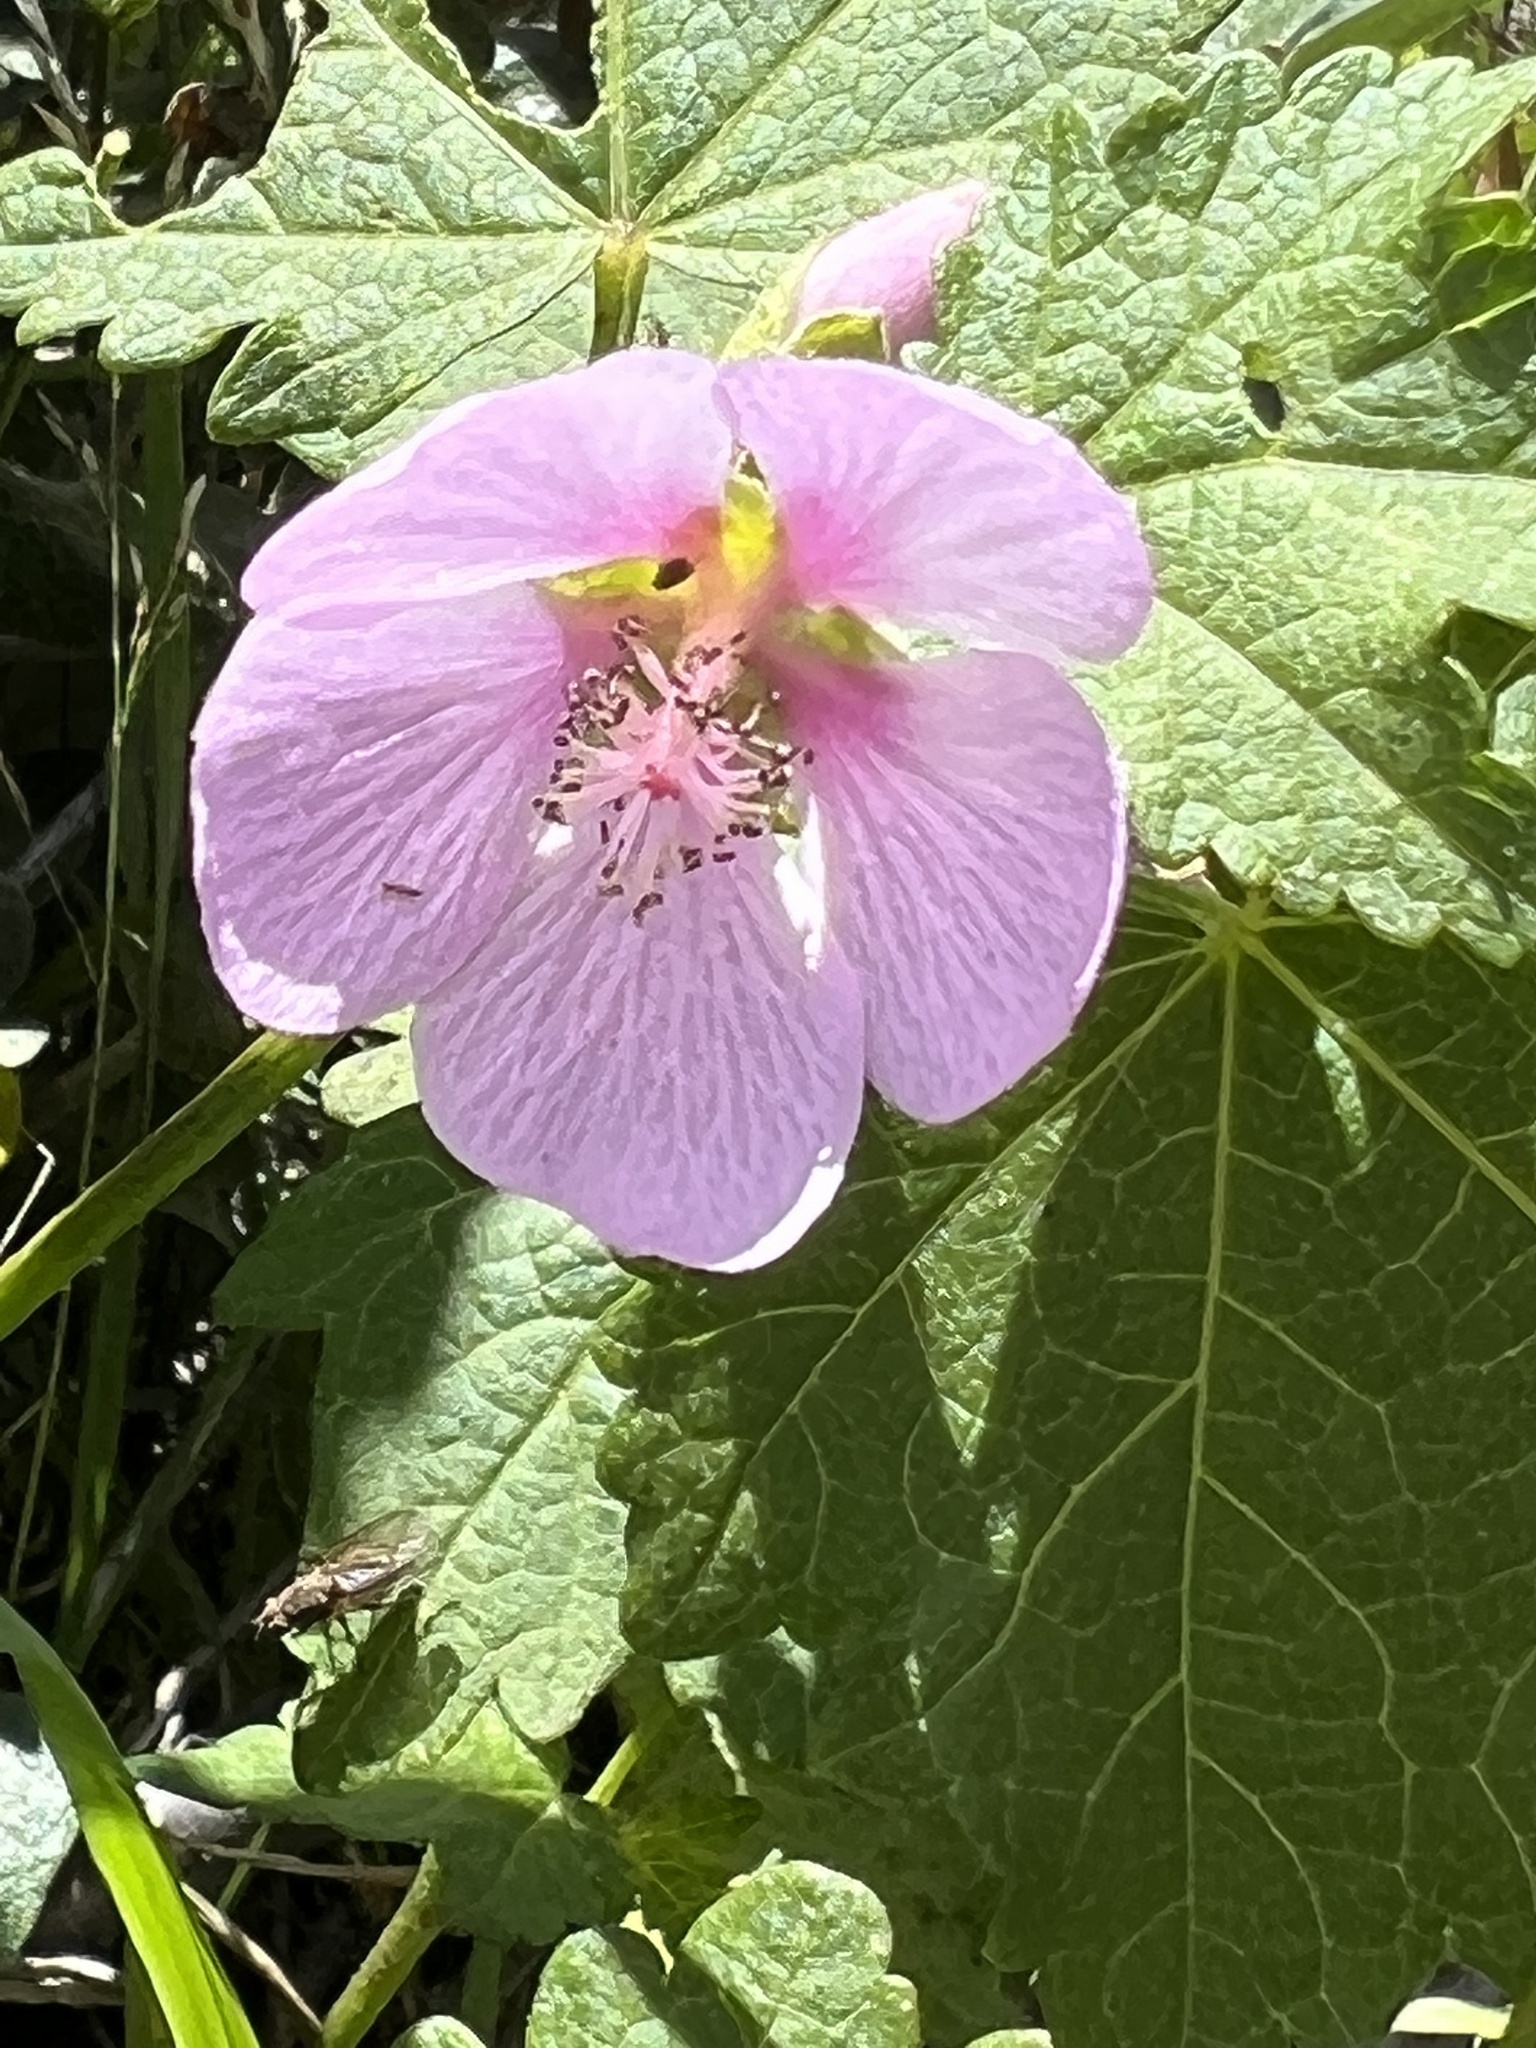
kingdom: Plantae
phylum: Tracheophyta
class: Magnoliopsida
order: Malvales
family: Malvaceae
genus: Iliamna
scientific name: Iliamna rivularis
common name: Wild hollyhock
